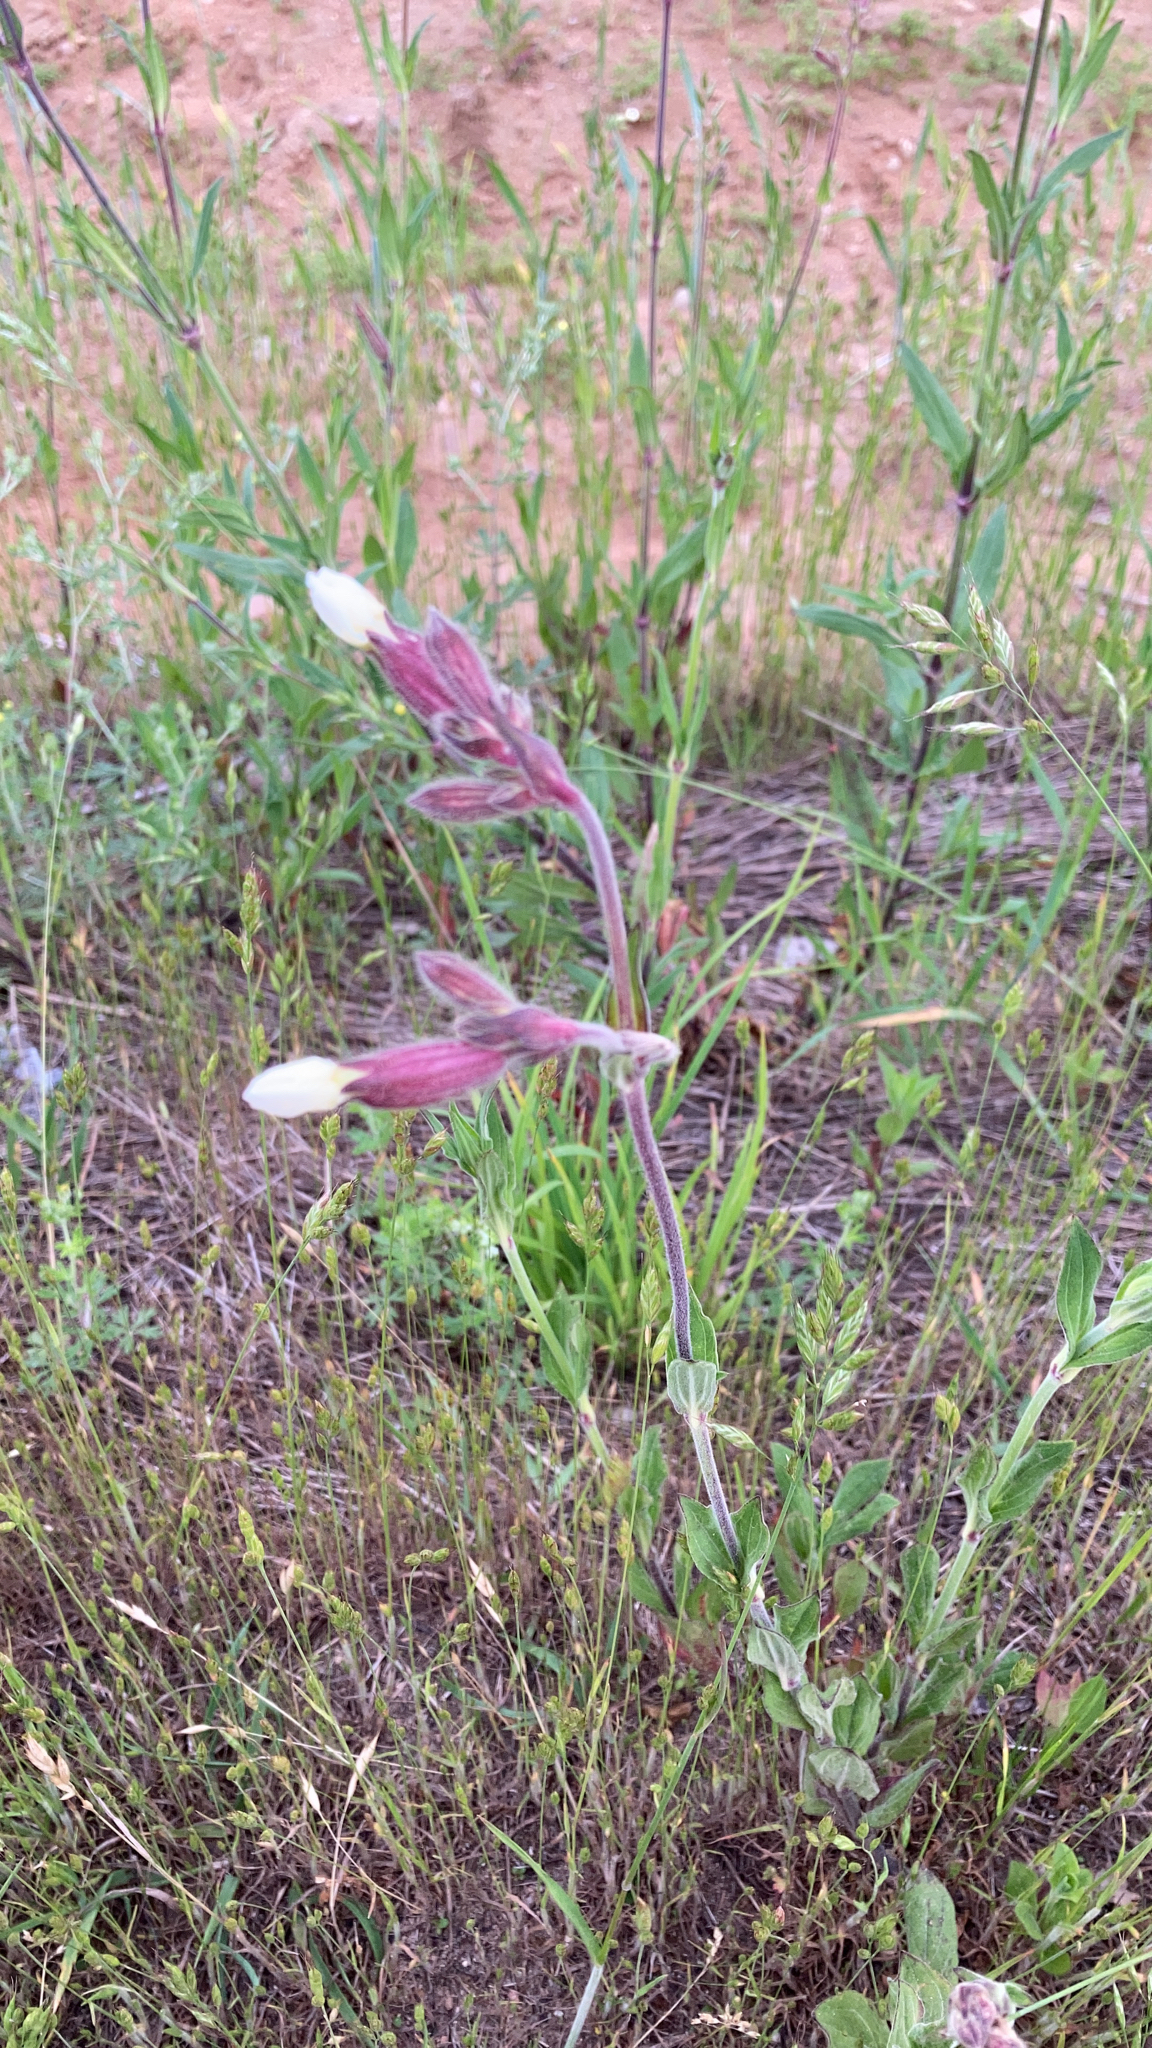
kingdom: Plantae
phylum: Tracheophyta
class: Magnoliopsida
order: Caryophyllales
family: Caryophyllaceae
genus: Silene
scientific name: Silene latifolia
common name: White campion
